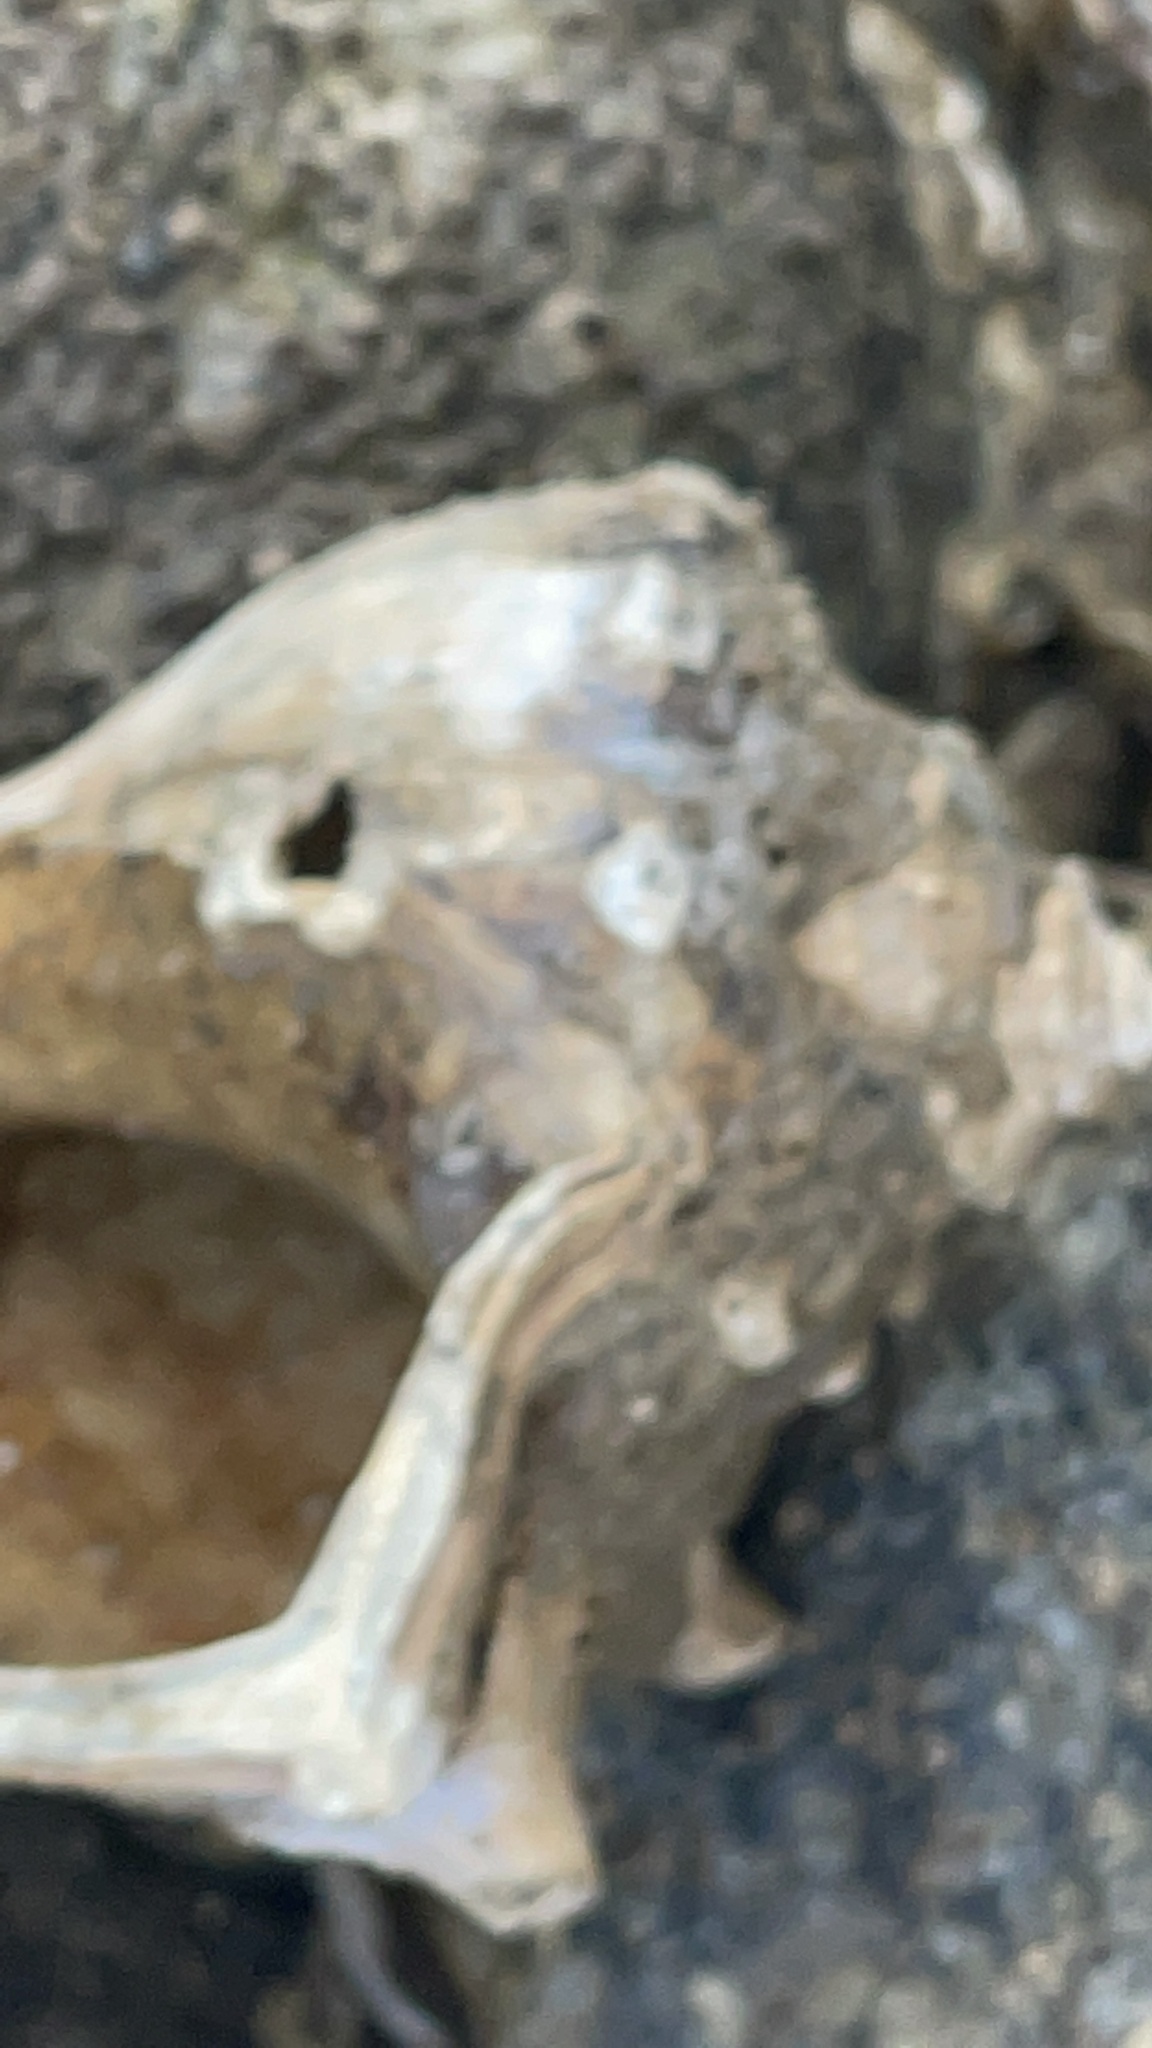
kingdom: Animalia
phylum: Mollusca
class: Gastropoda
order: Neogastropoda
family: Busyconidae
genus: Busycon
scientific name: Busycon carica
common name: Knobbed whelk
